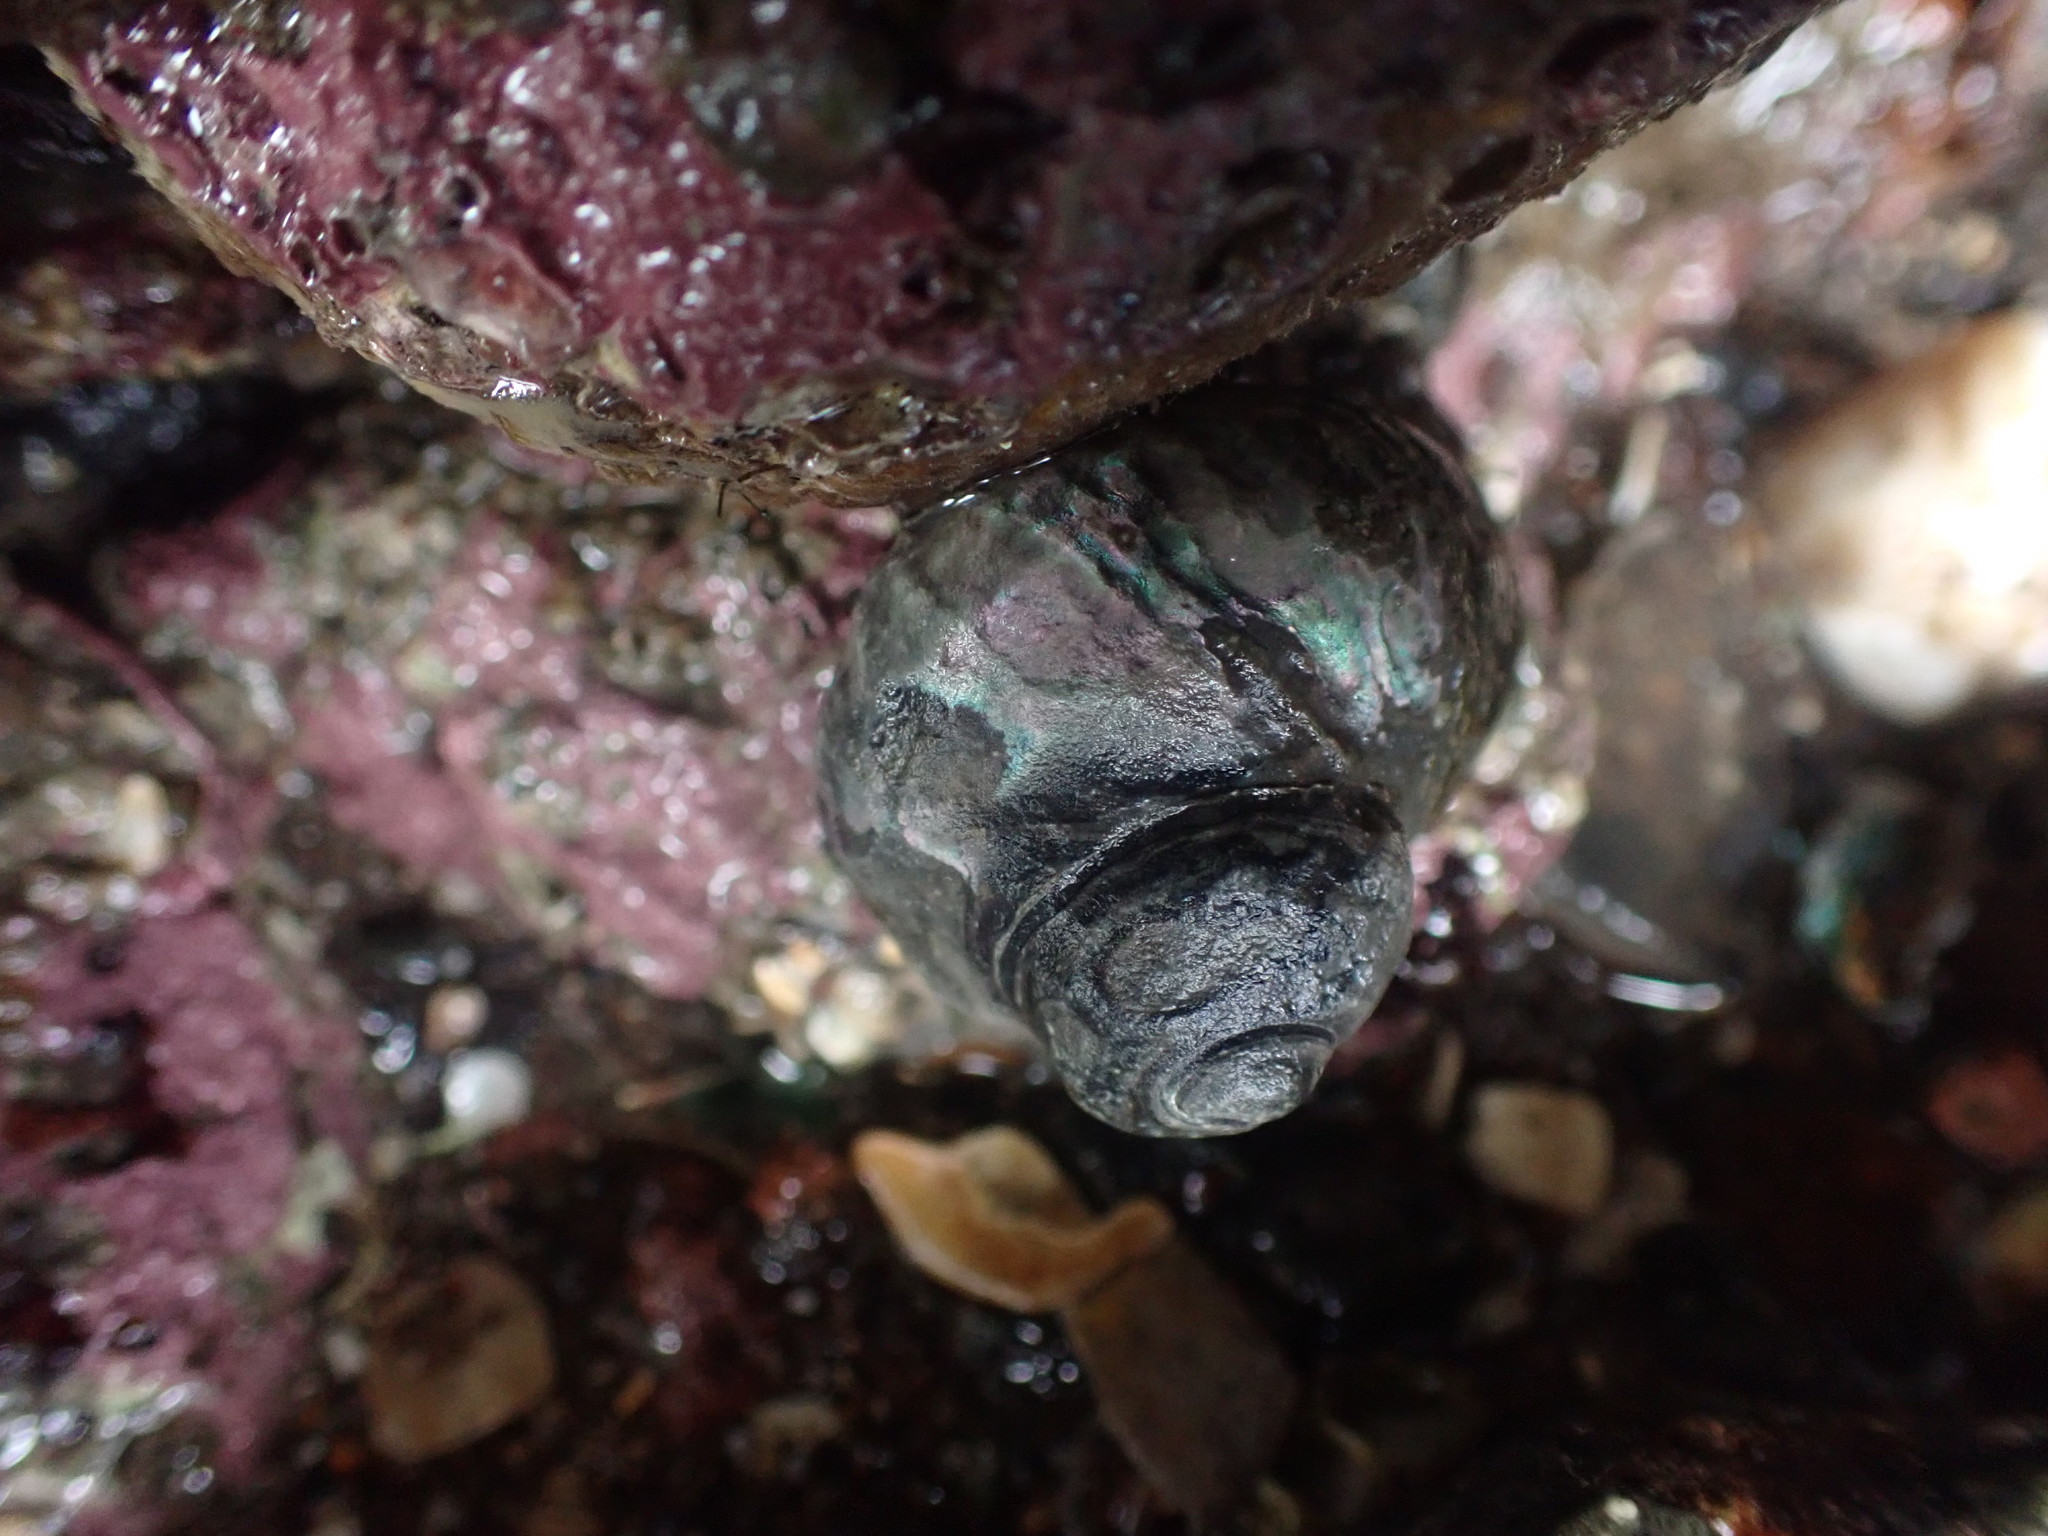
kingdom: Animalia
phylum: Mollusca
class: Gastropoda
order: Trochida
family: Turbinidae
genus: Lunella
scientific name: Lunella smaragda
